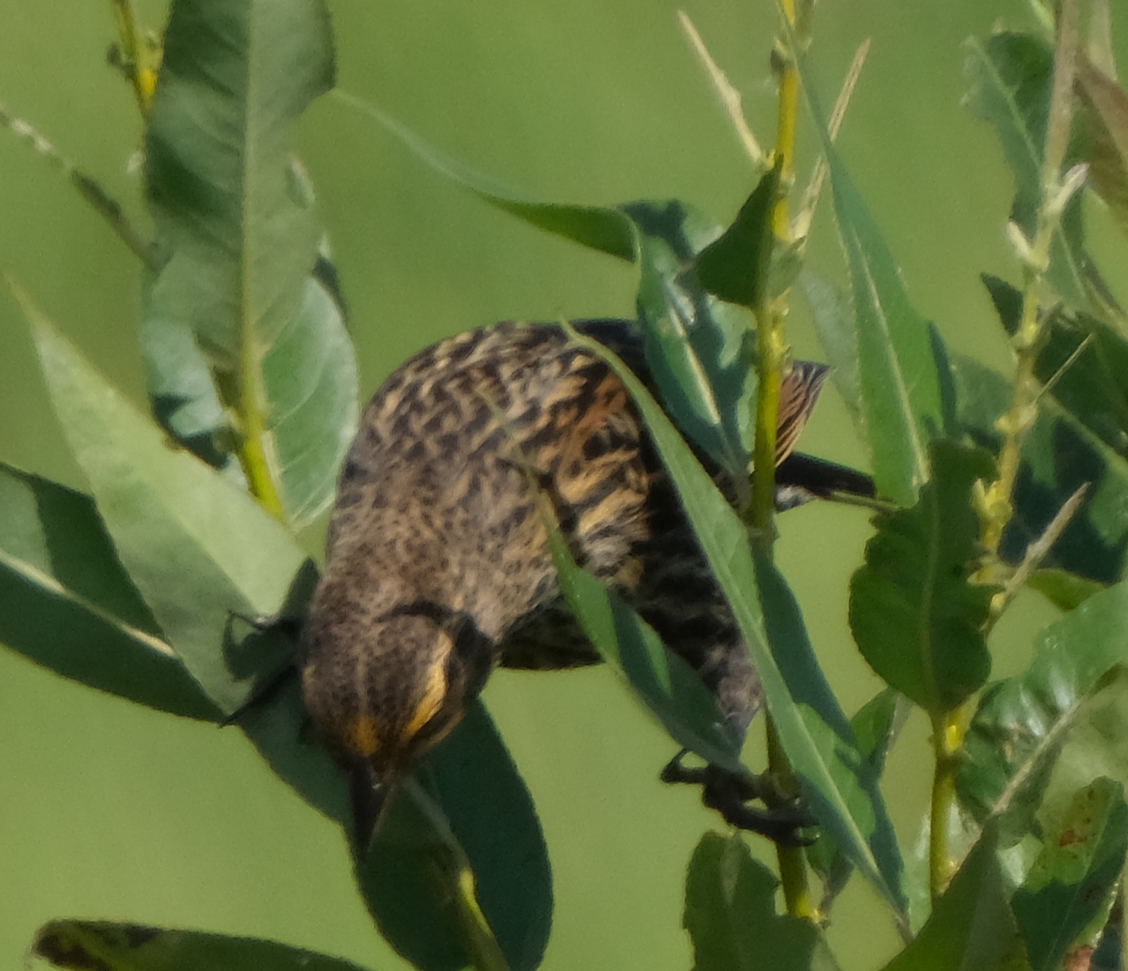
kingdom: Animalia
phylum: Chordata
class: Aves
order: Passeriformes
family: Icteridae
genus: Agelaius
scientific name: Agelaius phoeniceus
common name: Red-winged blackbird
